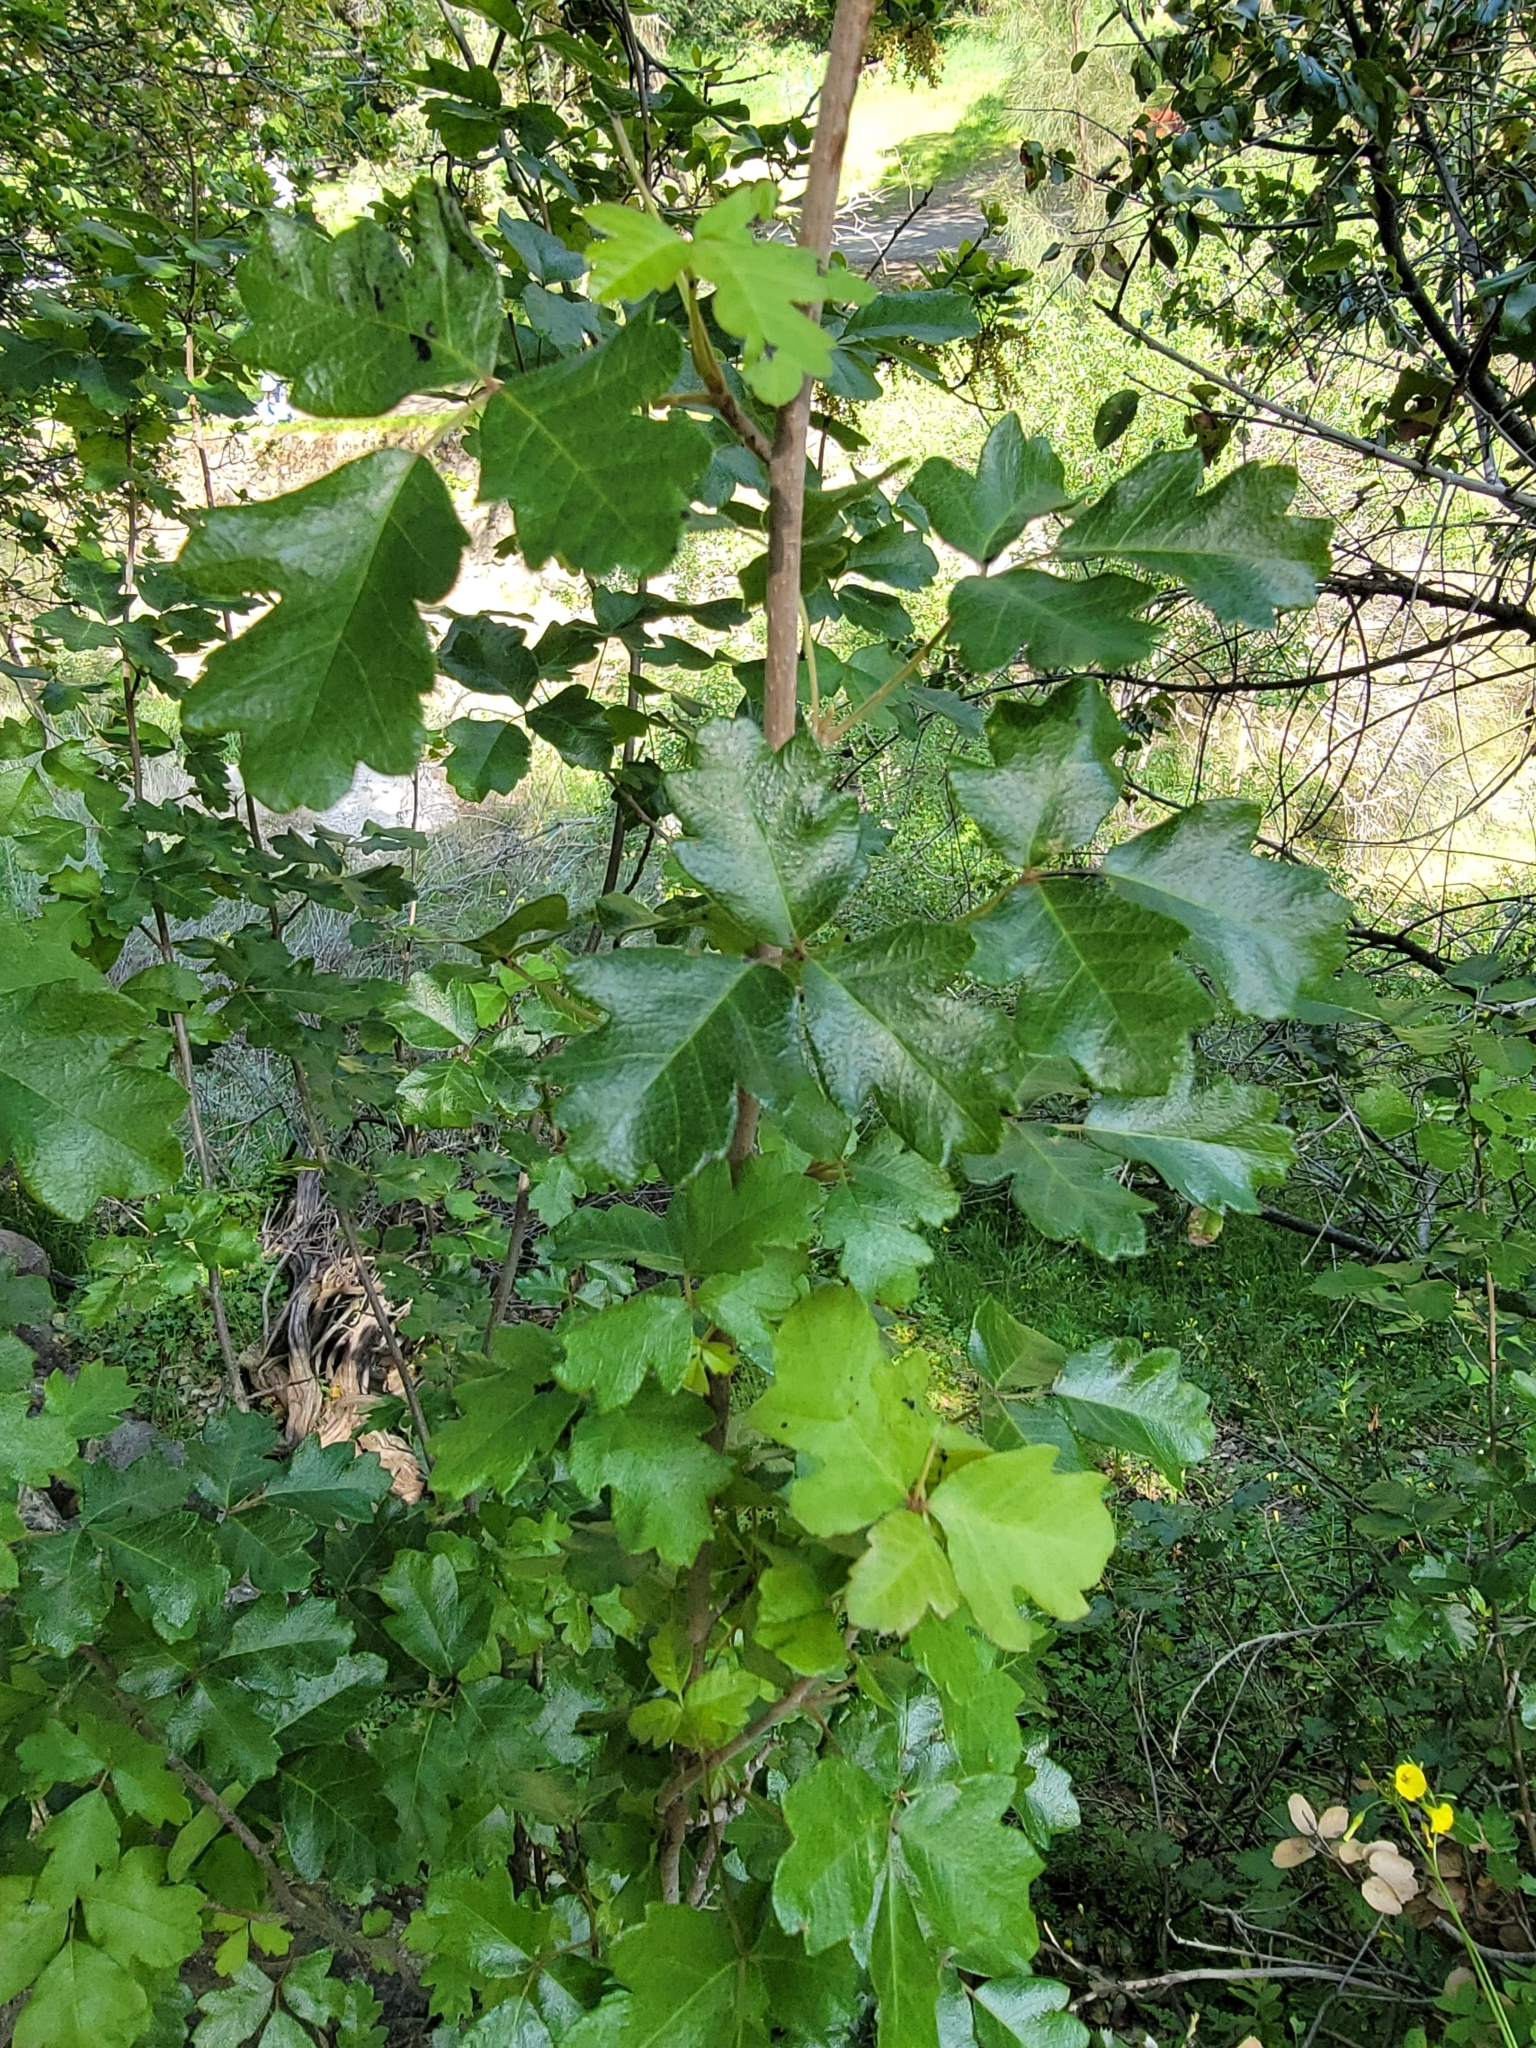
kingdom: Plantae
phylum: Tracheophyta
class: Magnoliopsida
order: Sapindales
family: Anacardiaceae
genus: Toxicodendron
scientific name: Toxicodendron diversilobum
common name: Pacific poison-oak
